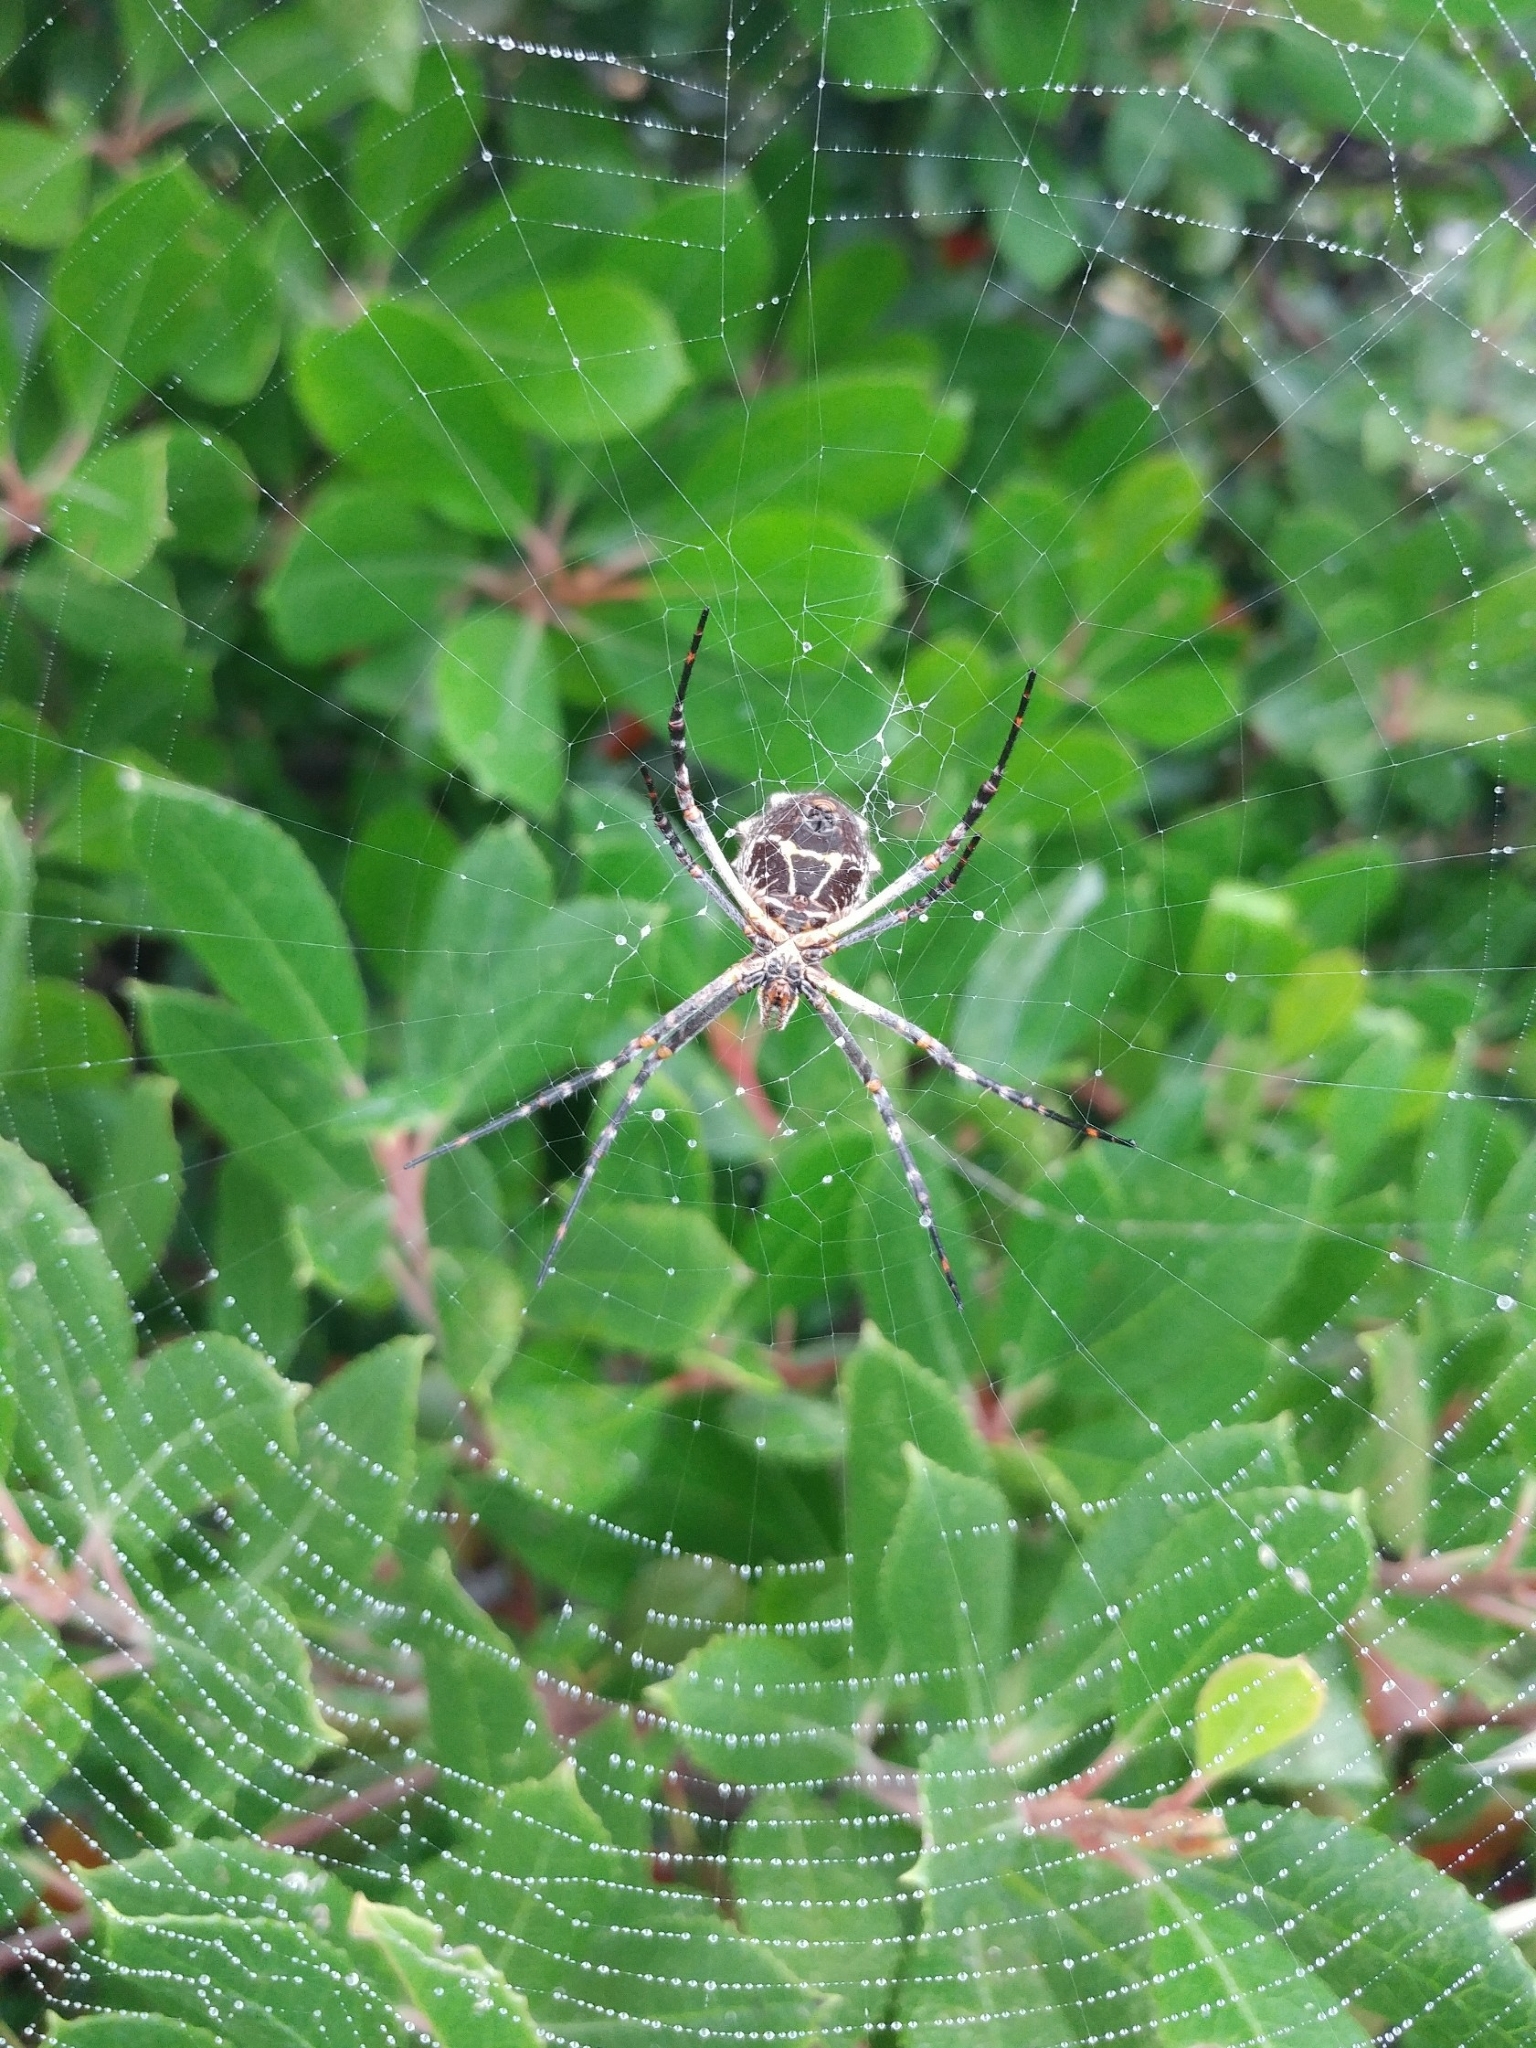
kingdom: Animalia
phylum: Arthropoda
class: Arachnida
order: Araneae
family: Araneidae
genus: Argiope
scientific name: Argiope argentata
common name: Orb weavers
